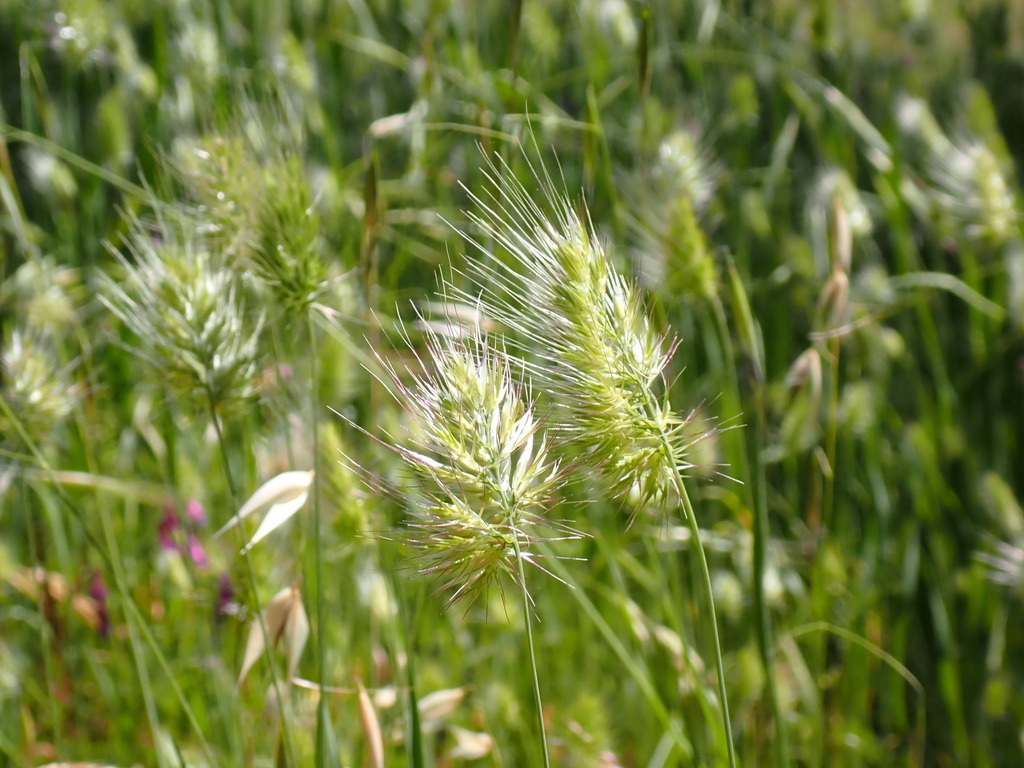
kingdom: Plantae
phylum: Tracheophyta
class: Liliopsida
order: Poales
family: Poaceae
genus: Cynosurus
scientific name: Cynosurus echinatus
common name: Rough dog's-tail
